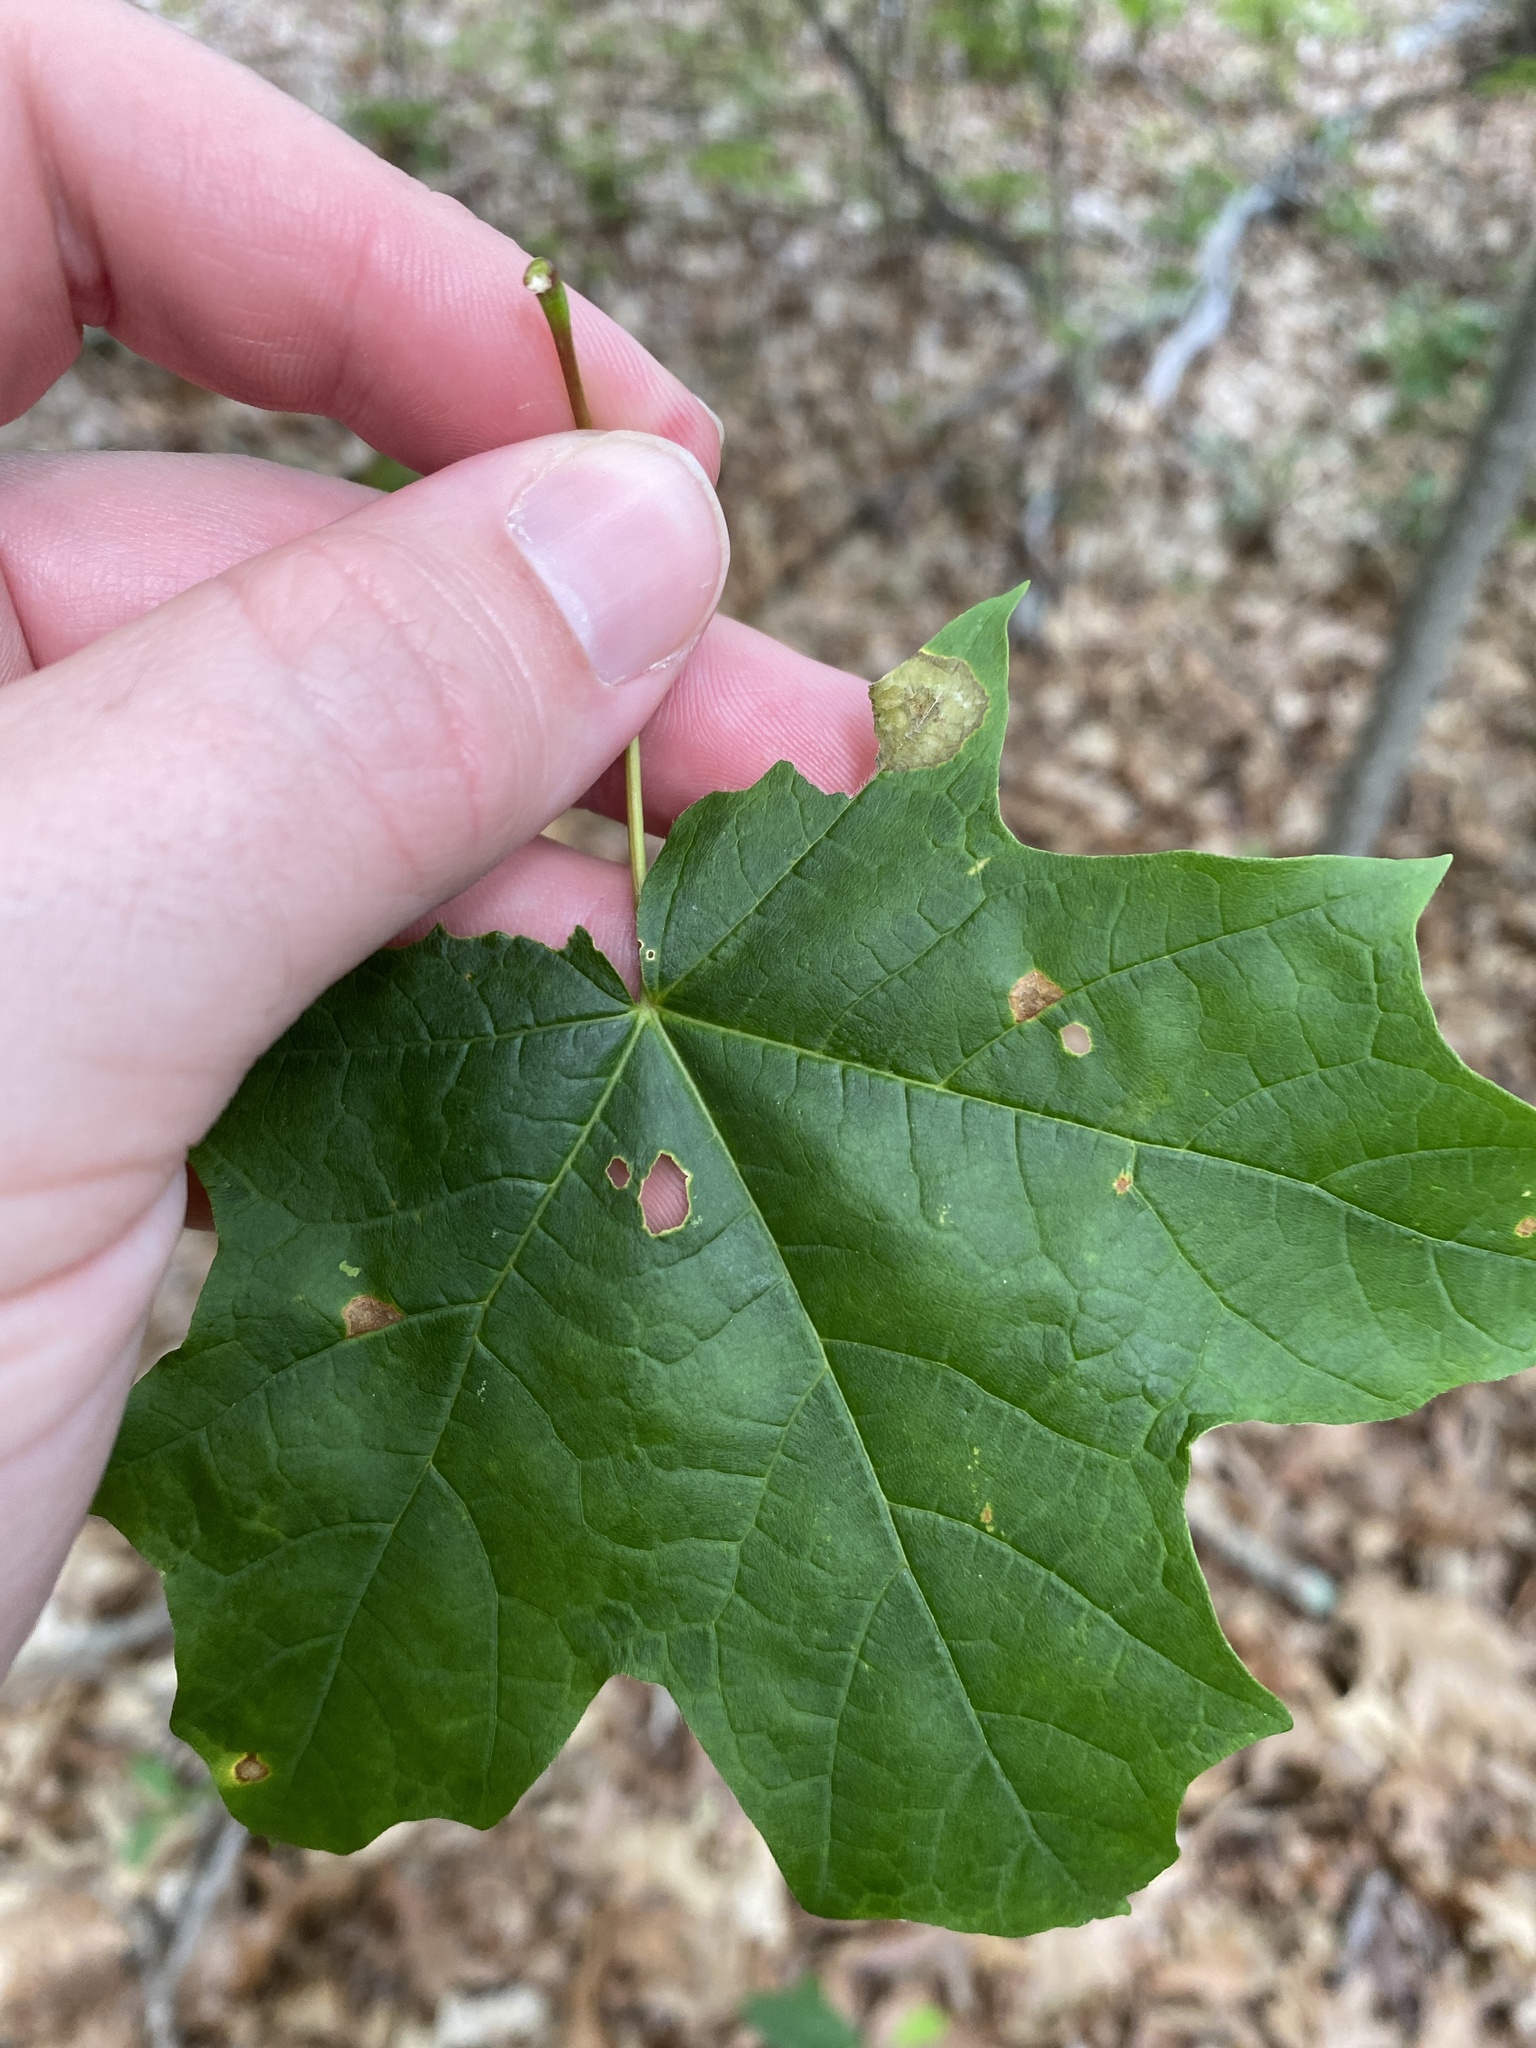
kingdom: Plantae
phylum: Tracheophyta
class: Magnoliopsida
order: Sapindales
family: Sapindaceae
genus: Acer
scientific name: Acer saccharum
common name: Sugar maple
